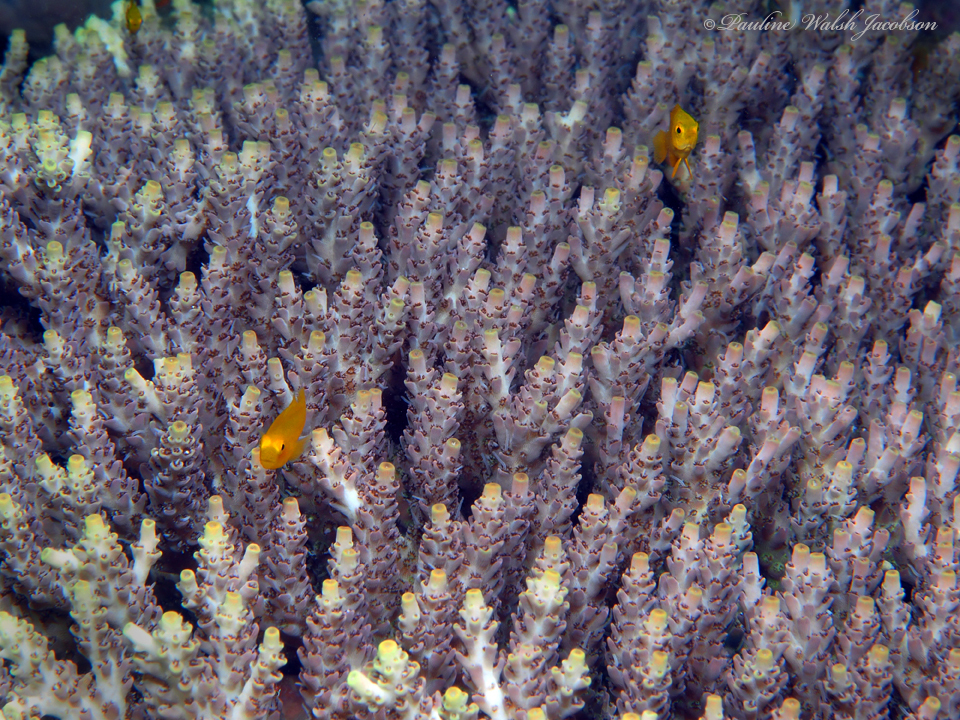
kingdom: Animalia
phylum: Chordata
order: Perciformes
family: Gobiidae
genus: Gobiodon
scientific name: Gobiodon okinawae
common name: Okinawa goby
